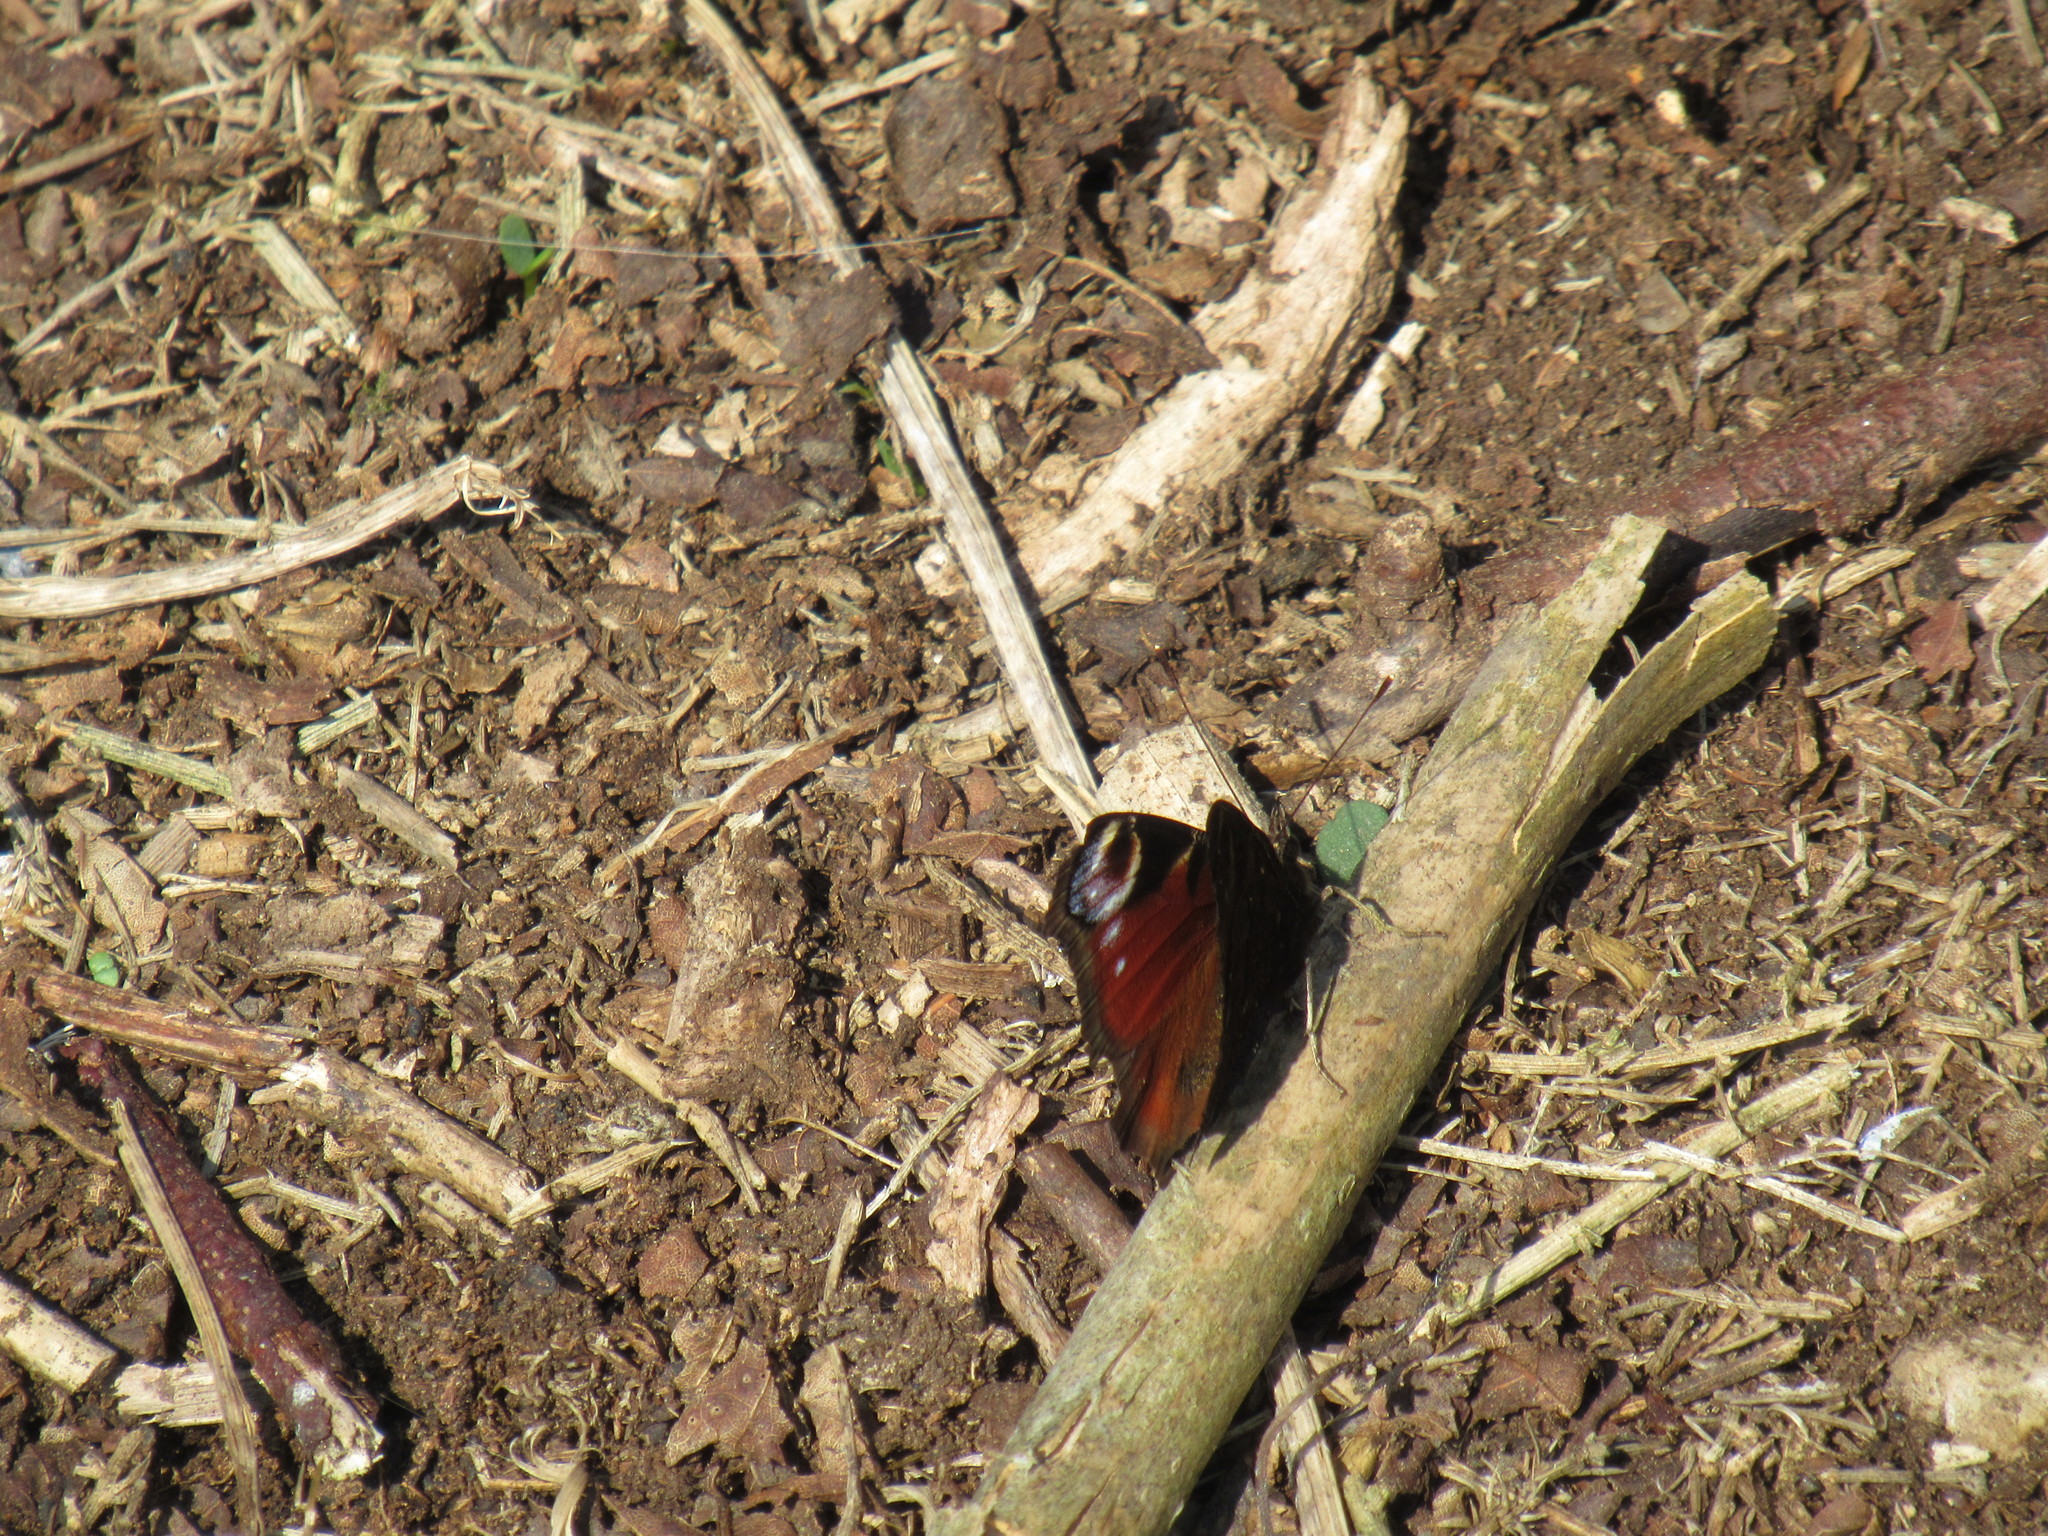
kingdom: Animalia
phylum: Arthropoda
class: Insecta
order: Lepidoptera
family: Nymphalidae
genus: Aglais
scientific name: Aglais io
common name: Peacock
